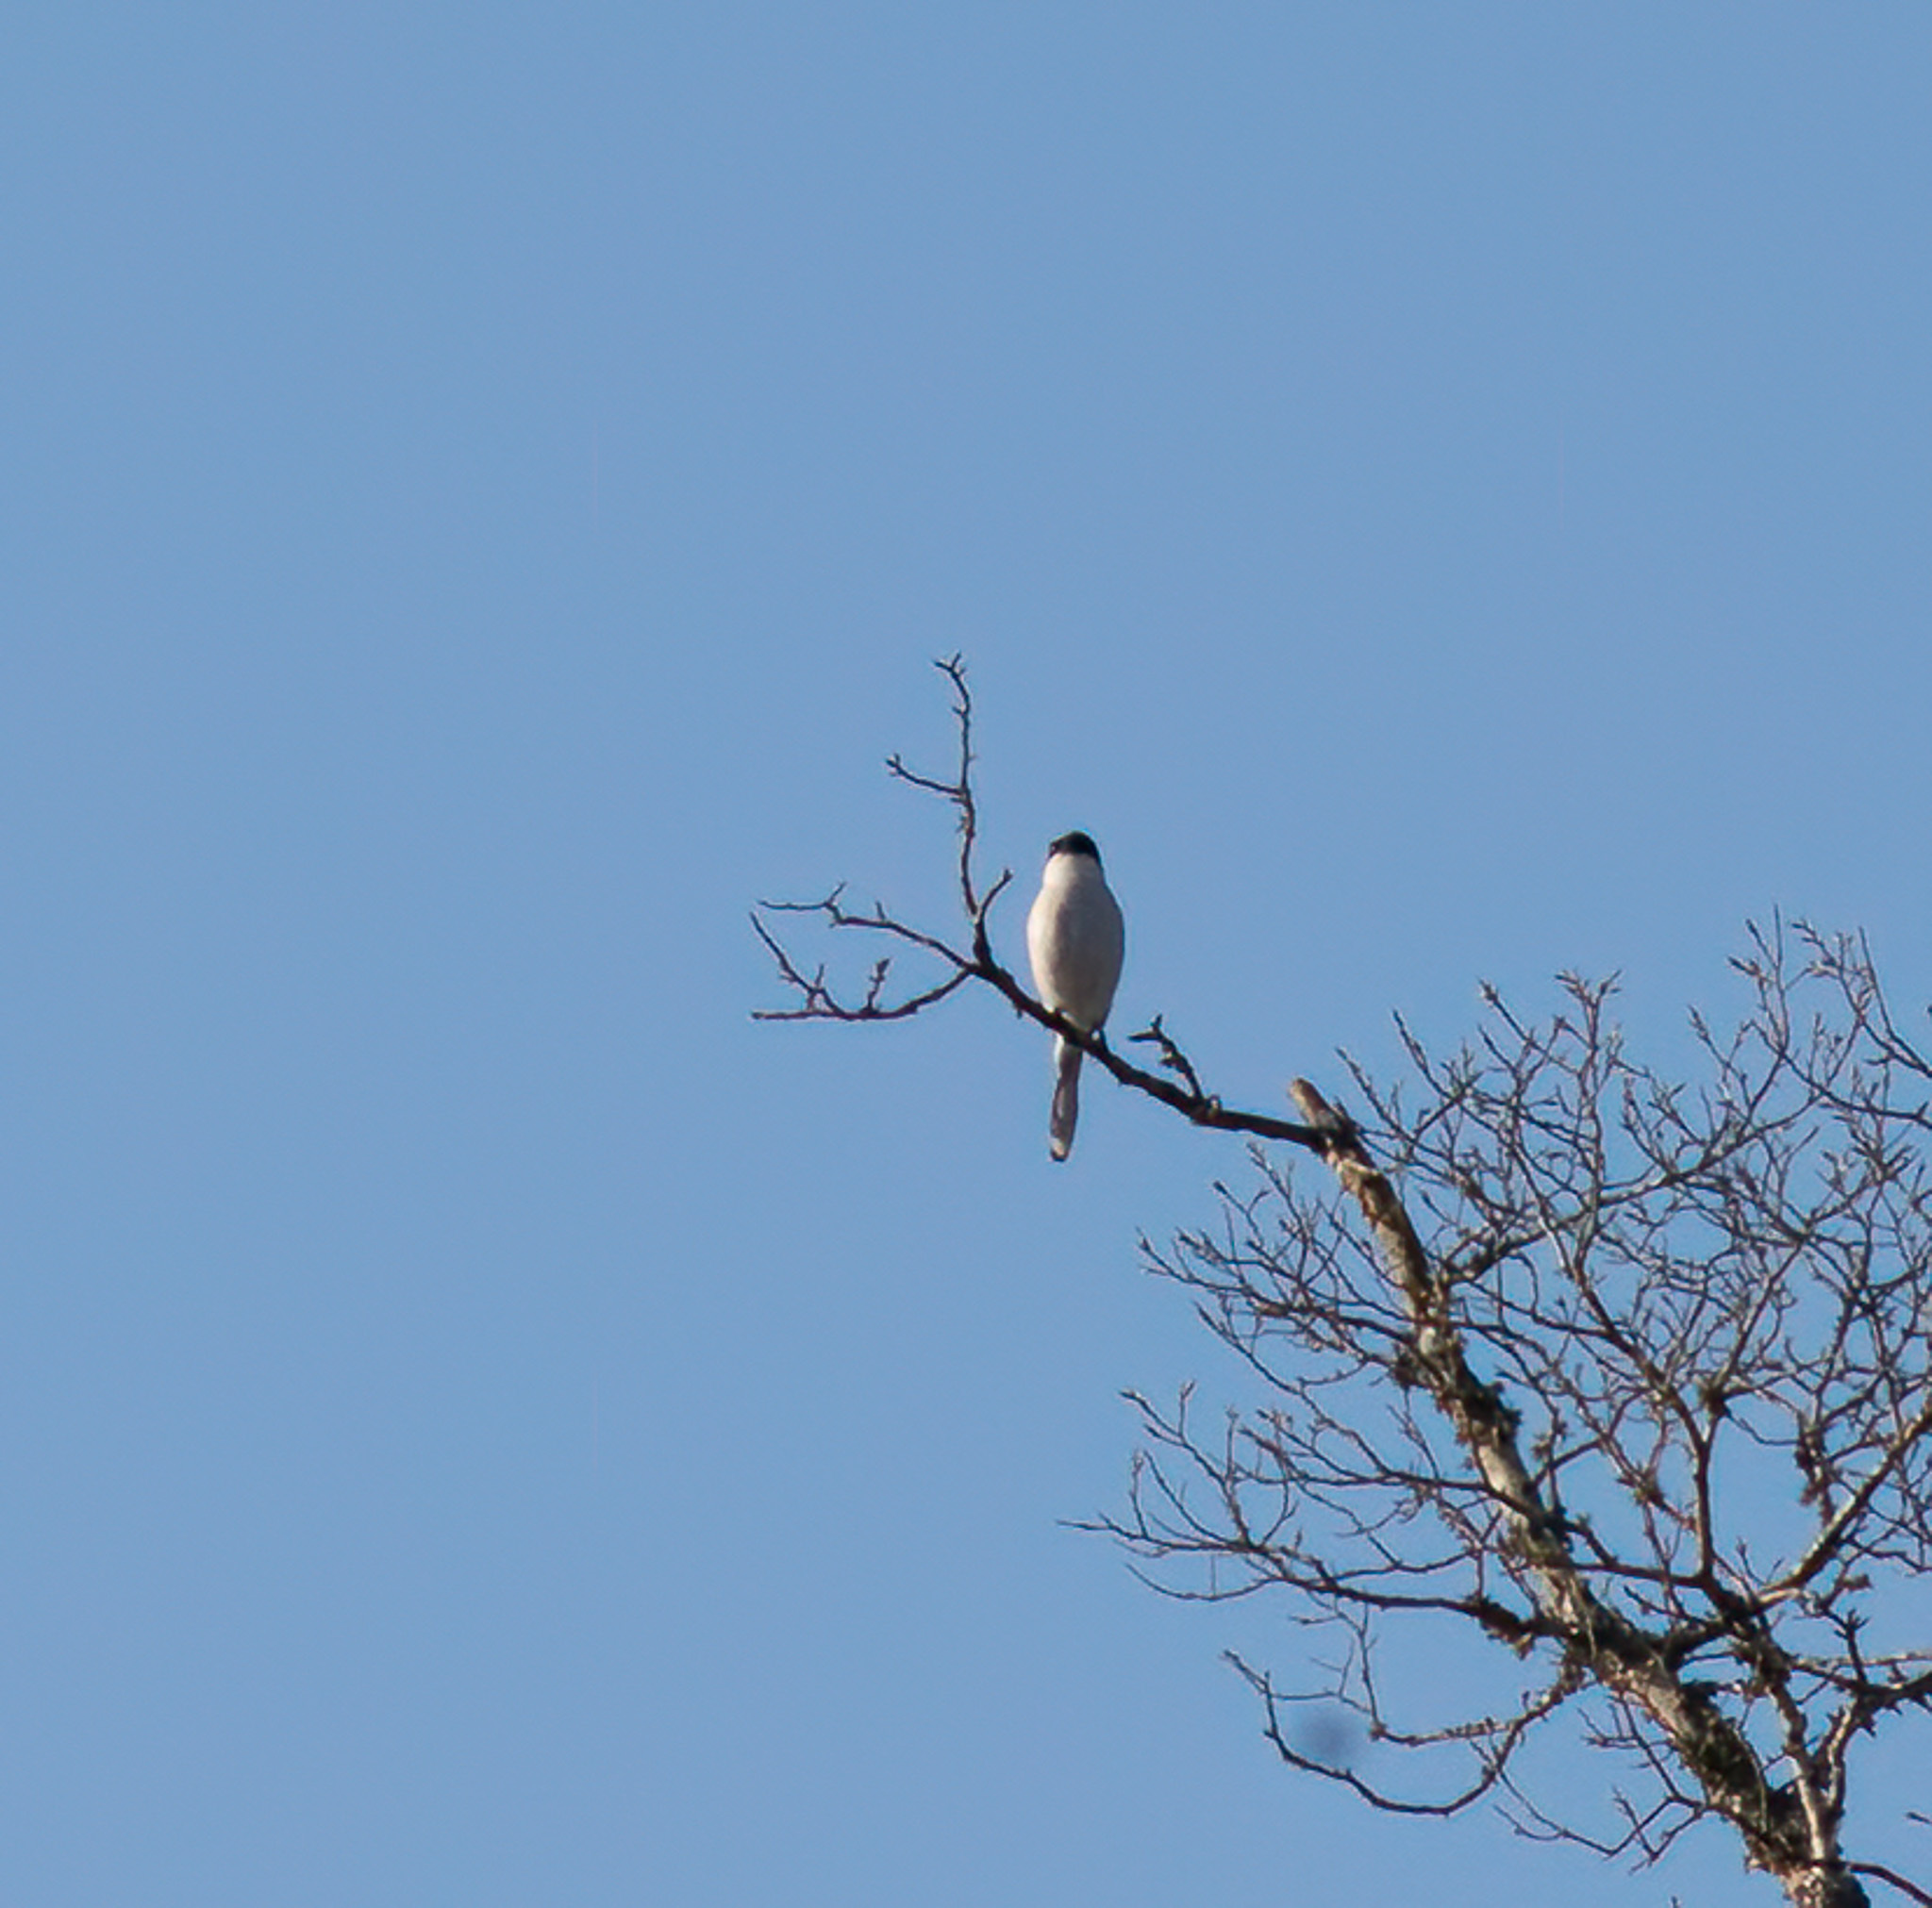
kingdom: Animalia
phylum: Chordata
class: Aves
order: Passeriformes
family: Laniidae
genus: Lanius
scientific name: Lanius ludovicianus
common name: Loggerhead shrike
